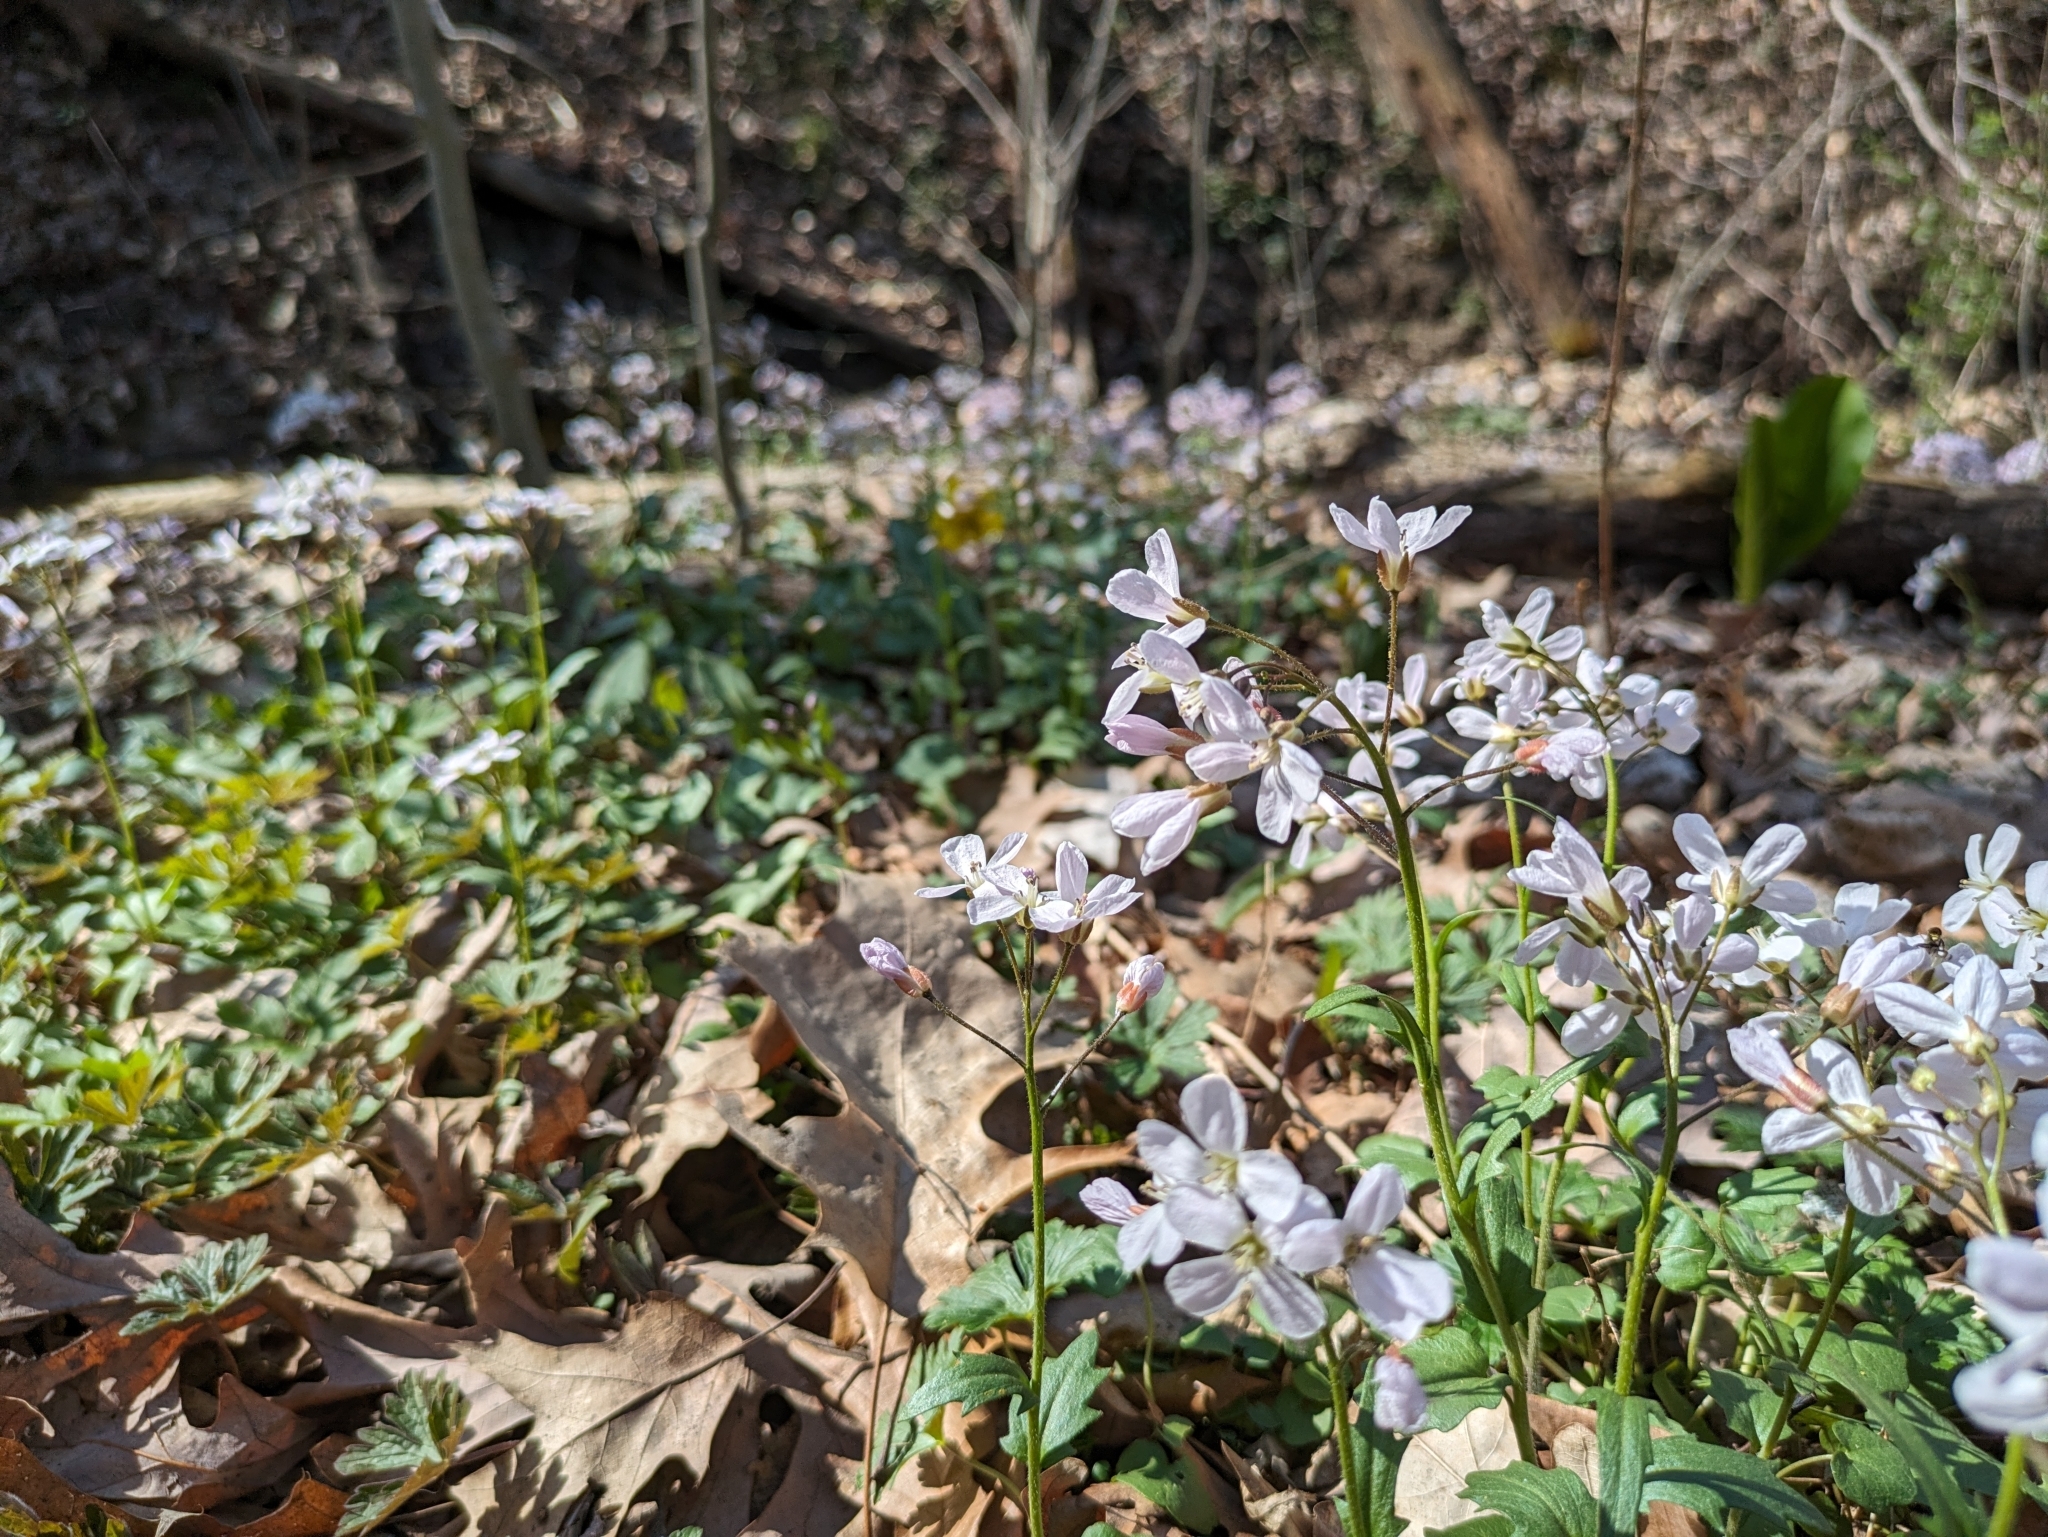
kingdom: Plantae
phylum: Tracheophyta
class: Magnoliopsida
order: Brassicales
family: Brassicaceae
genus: Cardamine
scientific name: Cardamine bulbosa
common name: Spring cress
